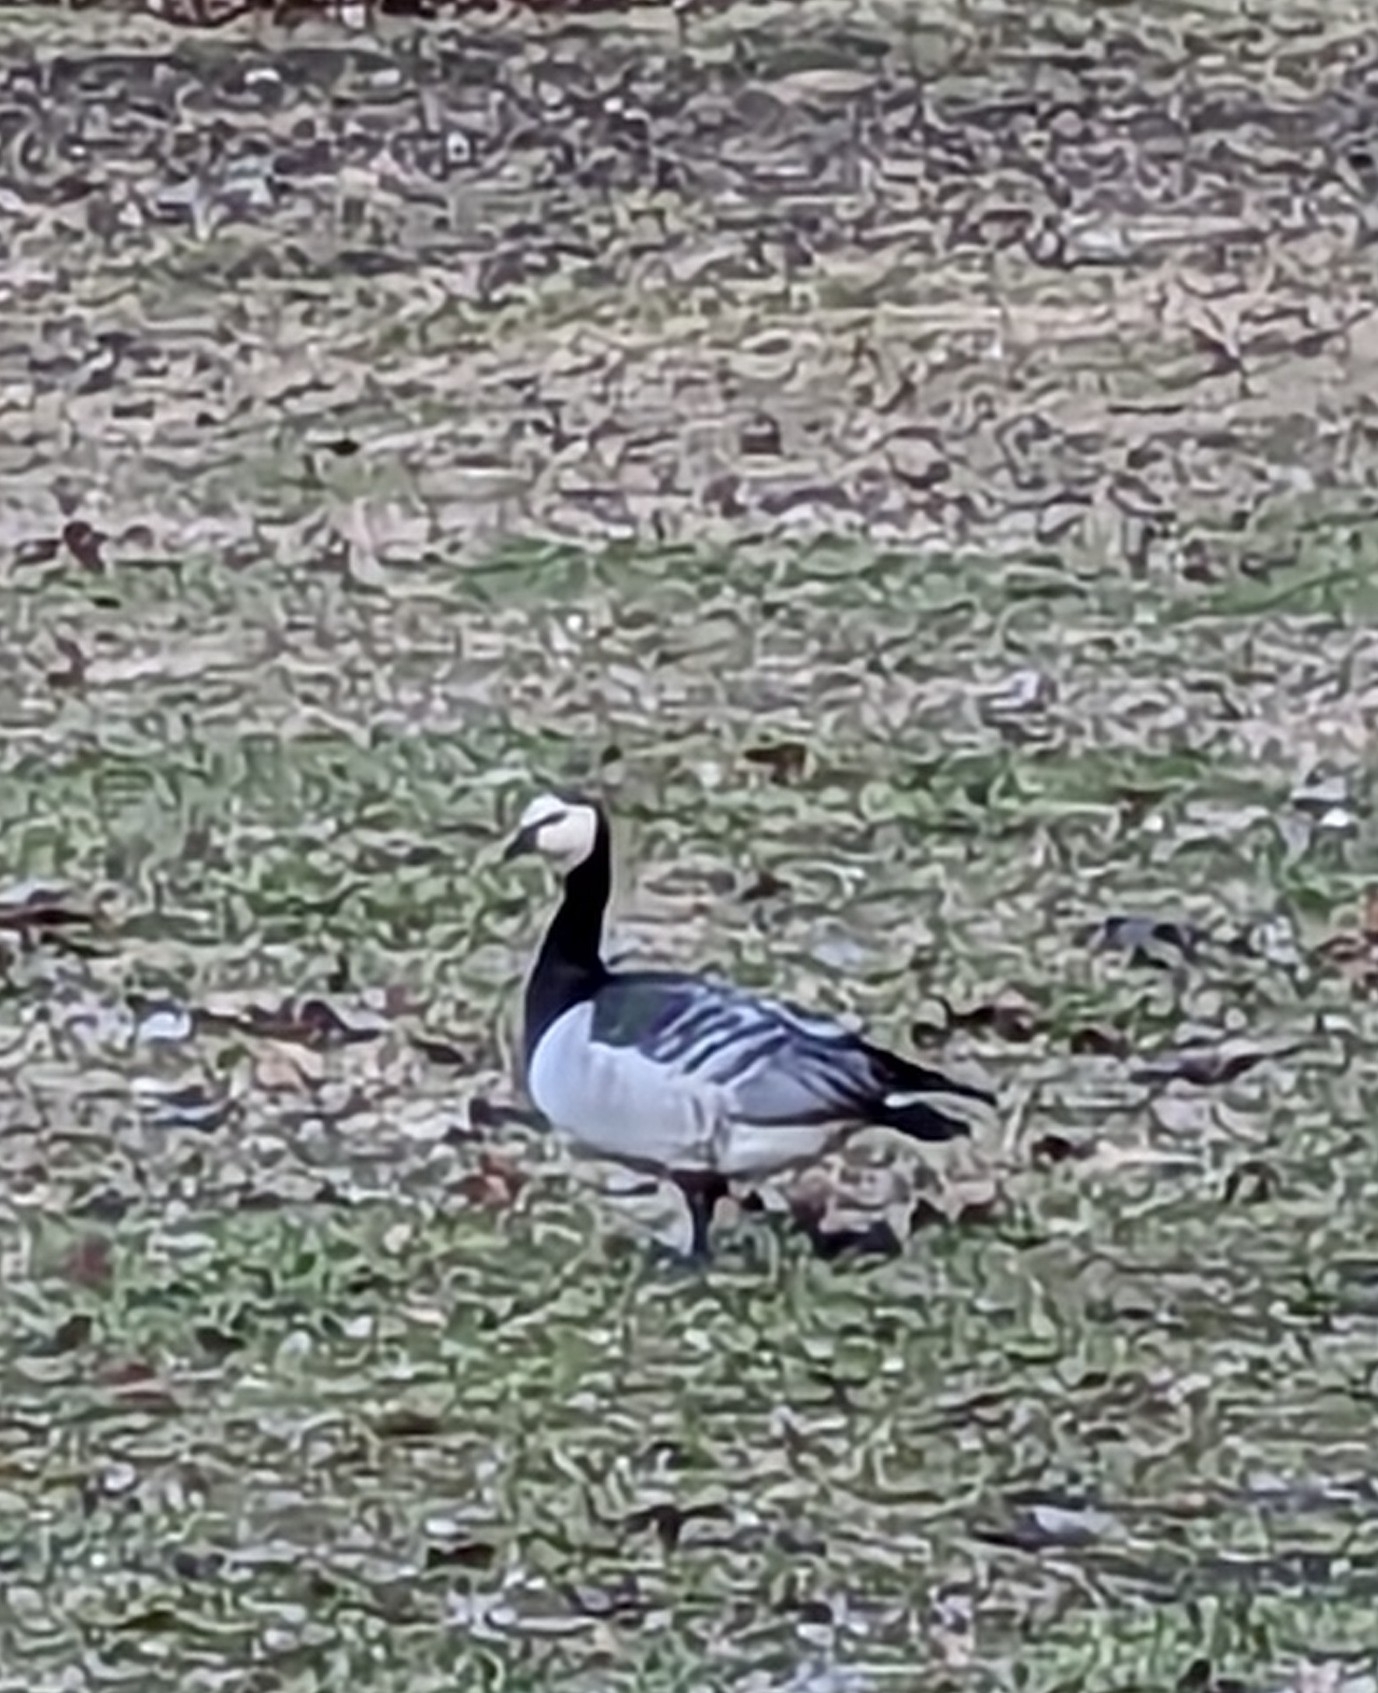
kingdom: Animalia
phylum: Chordata
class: Aves
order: Anseriformes
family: Anatidae
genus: Branta
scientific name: Branta leucopsis
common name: Barnacle goose
